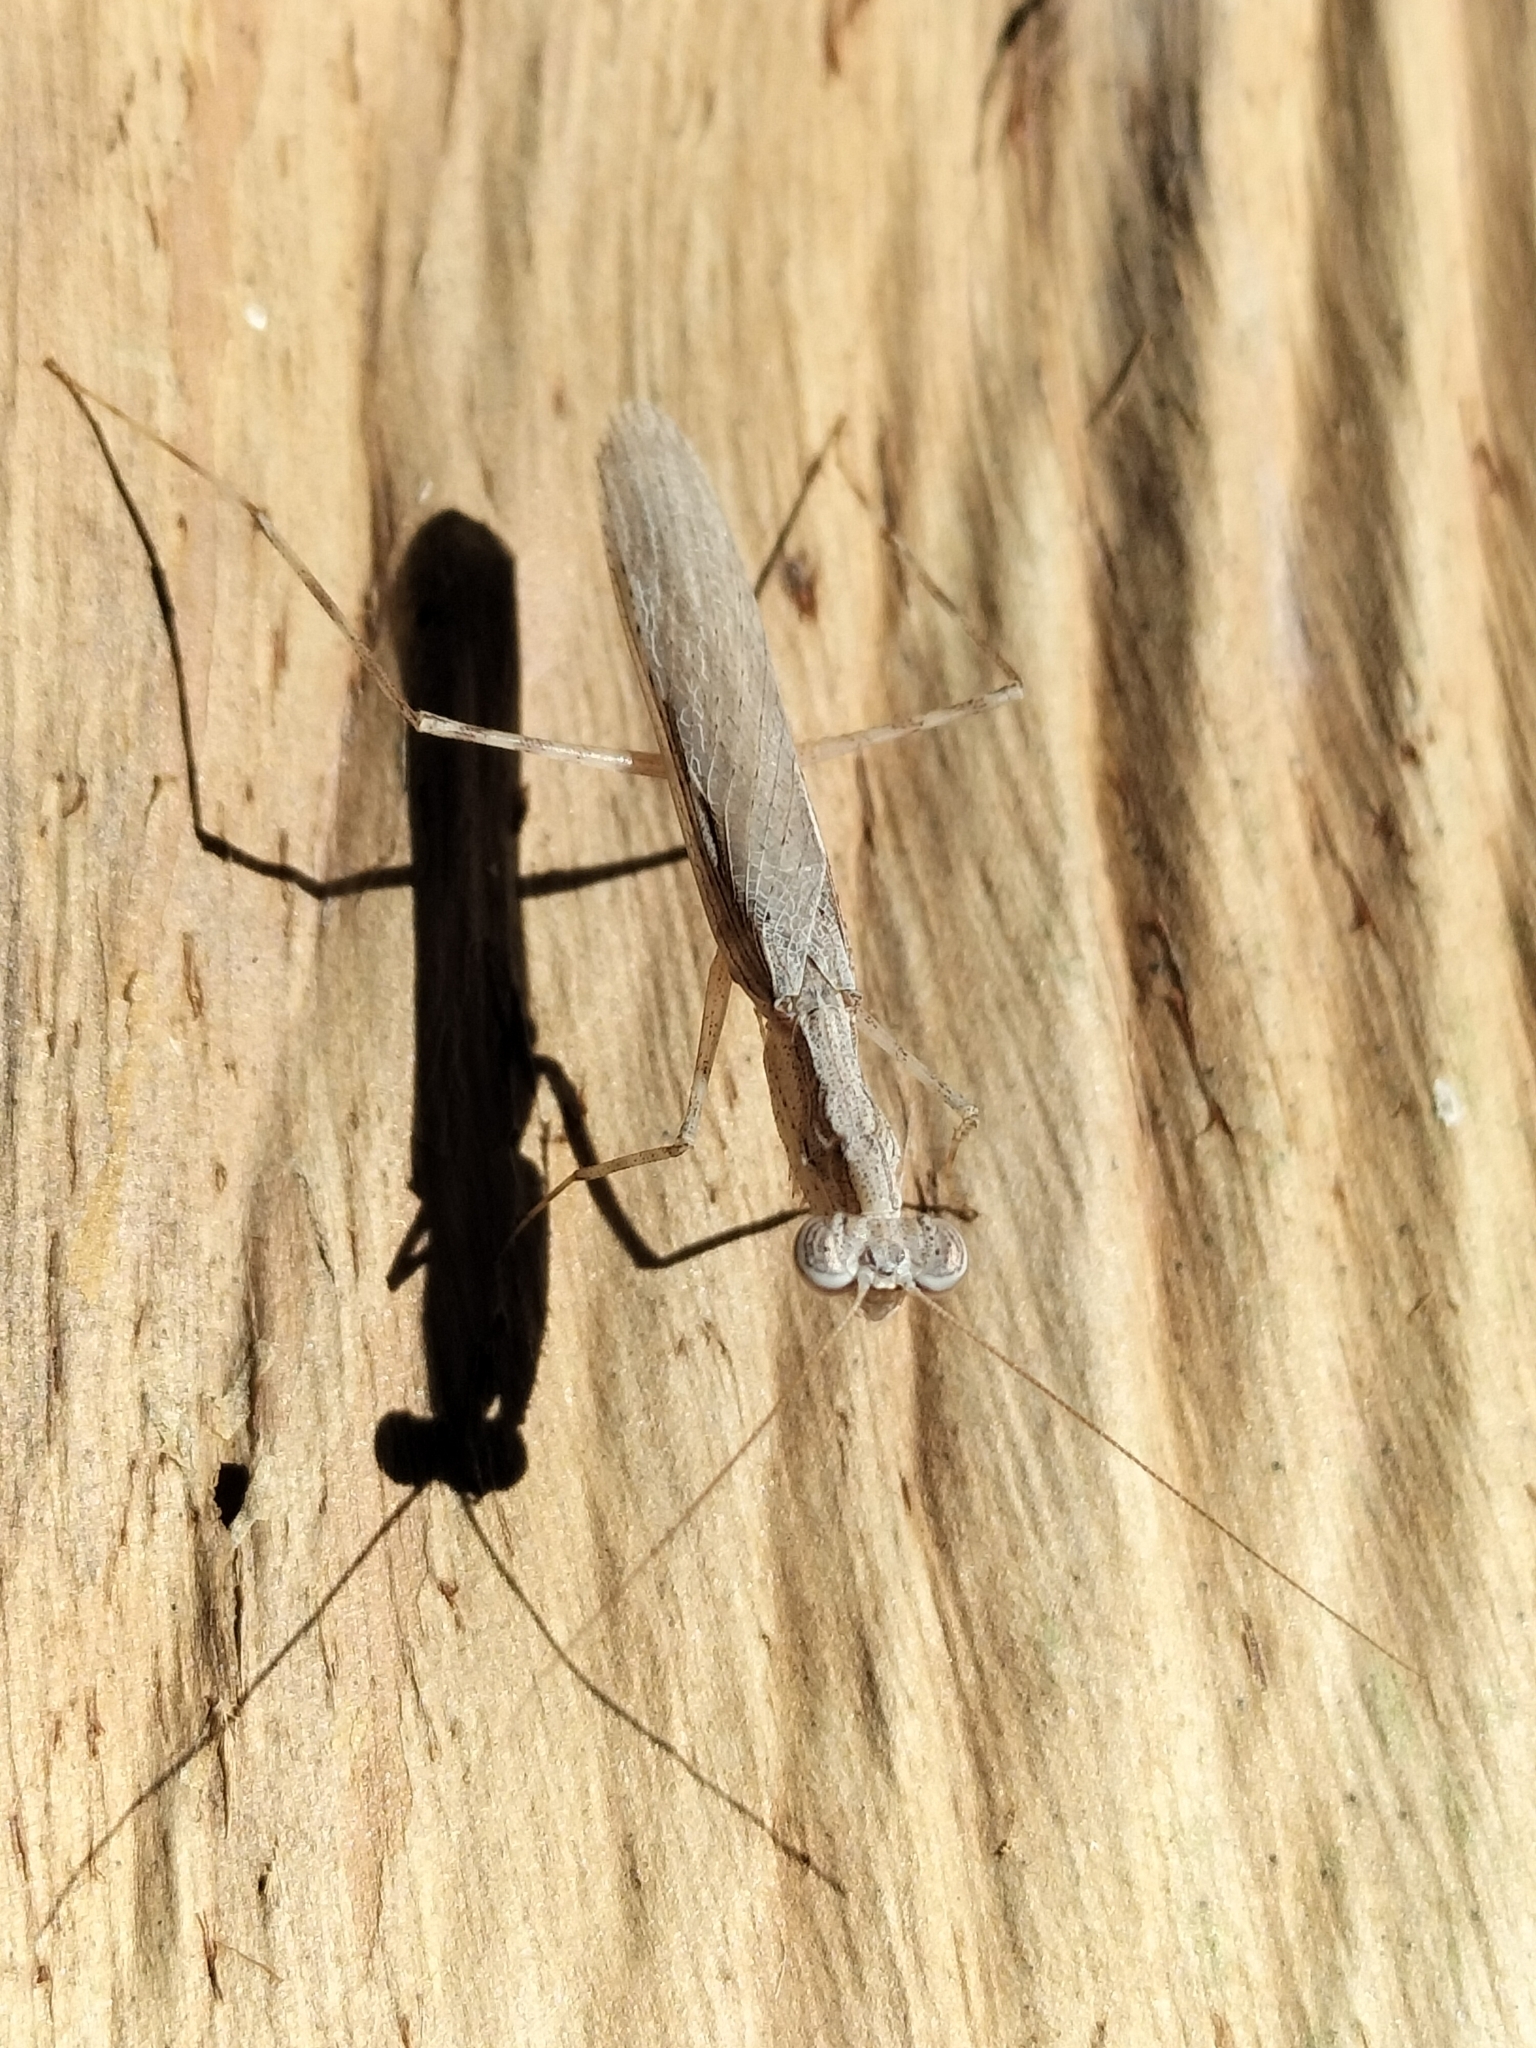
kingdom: Animalia
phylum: Arthropoda
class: Insecta
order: Mantodea
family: Nanomantidae
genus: Ima
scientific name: Ima fusca
